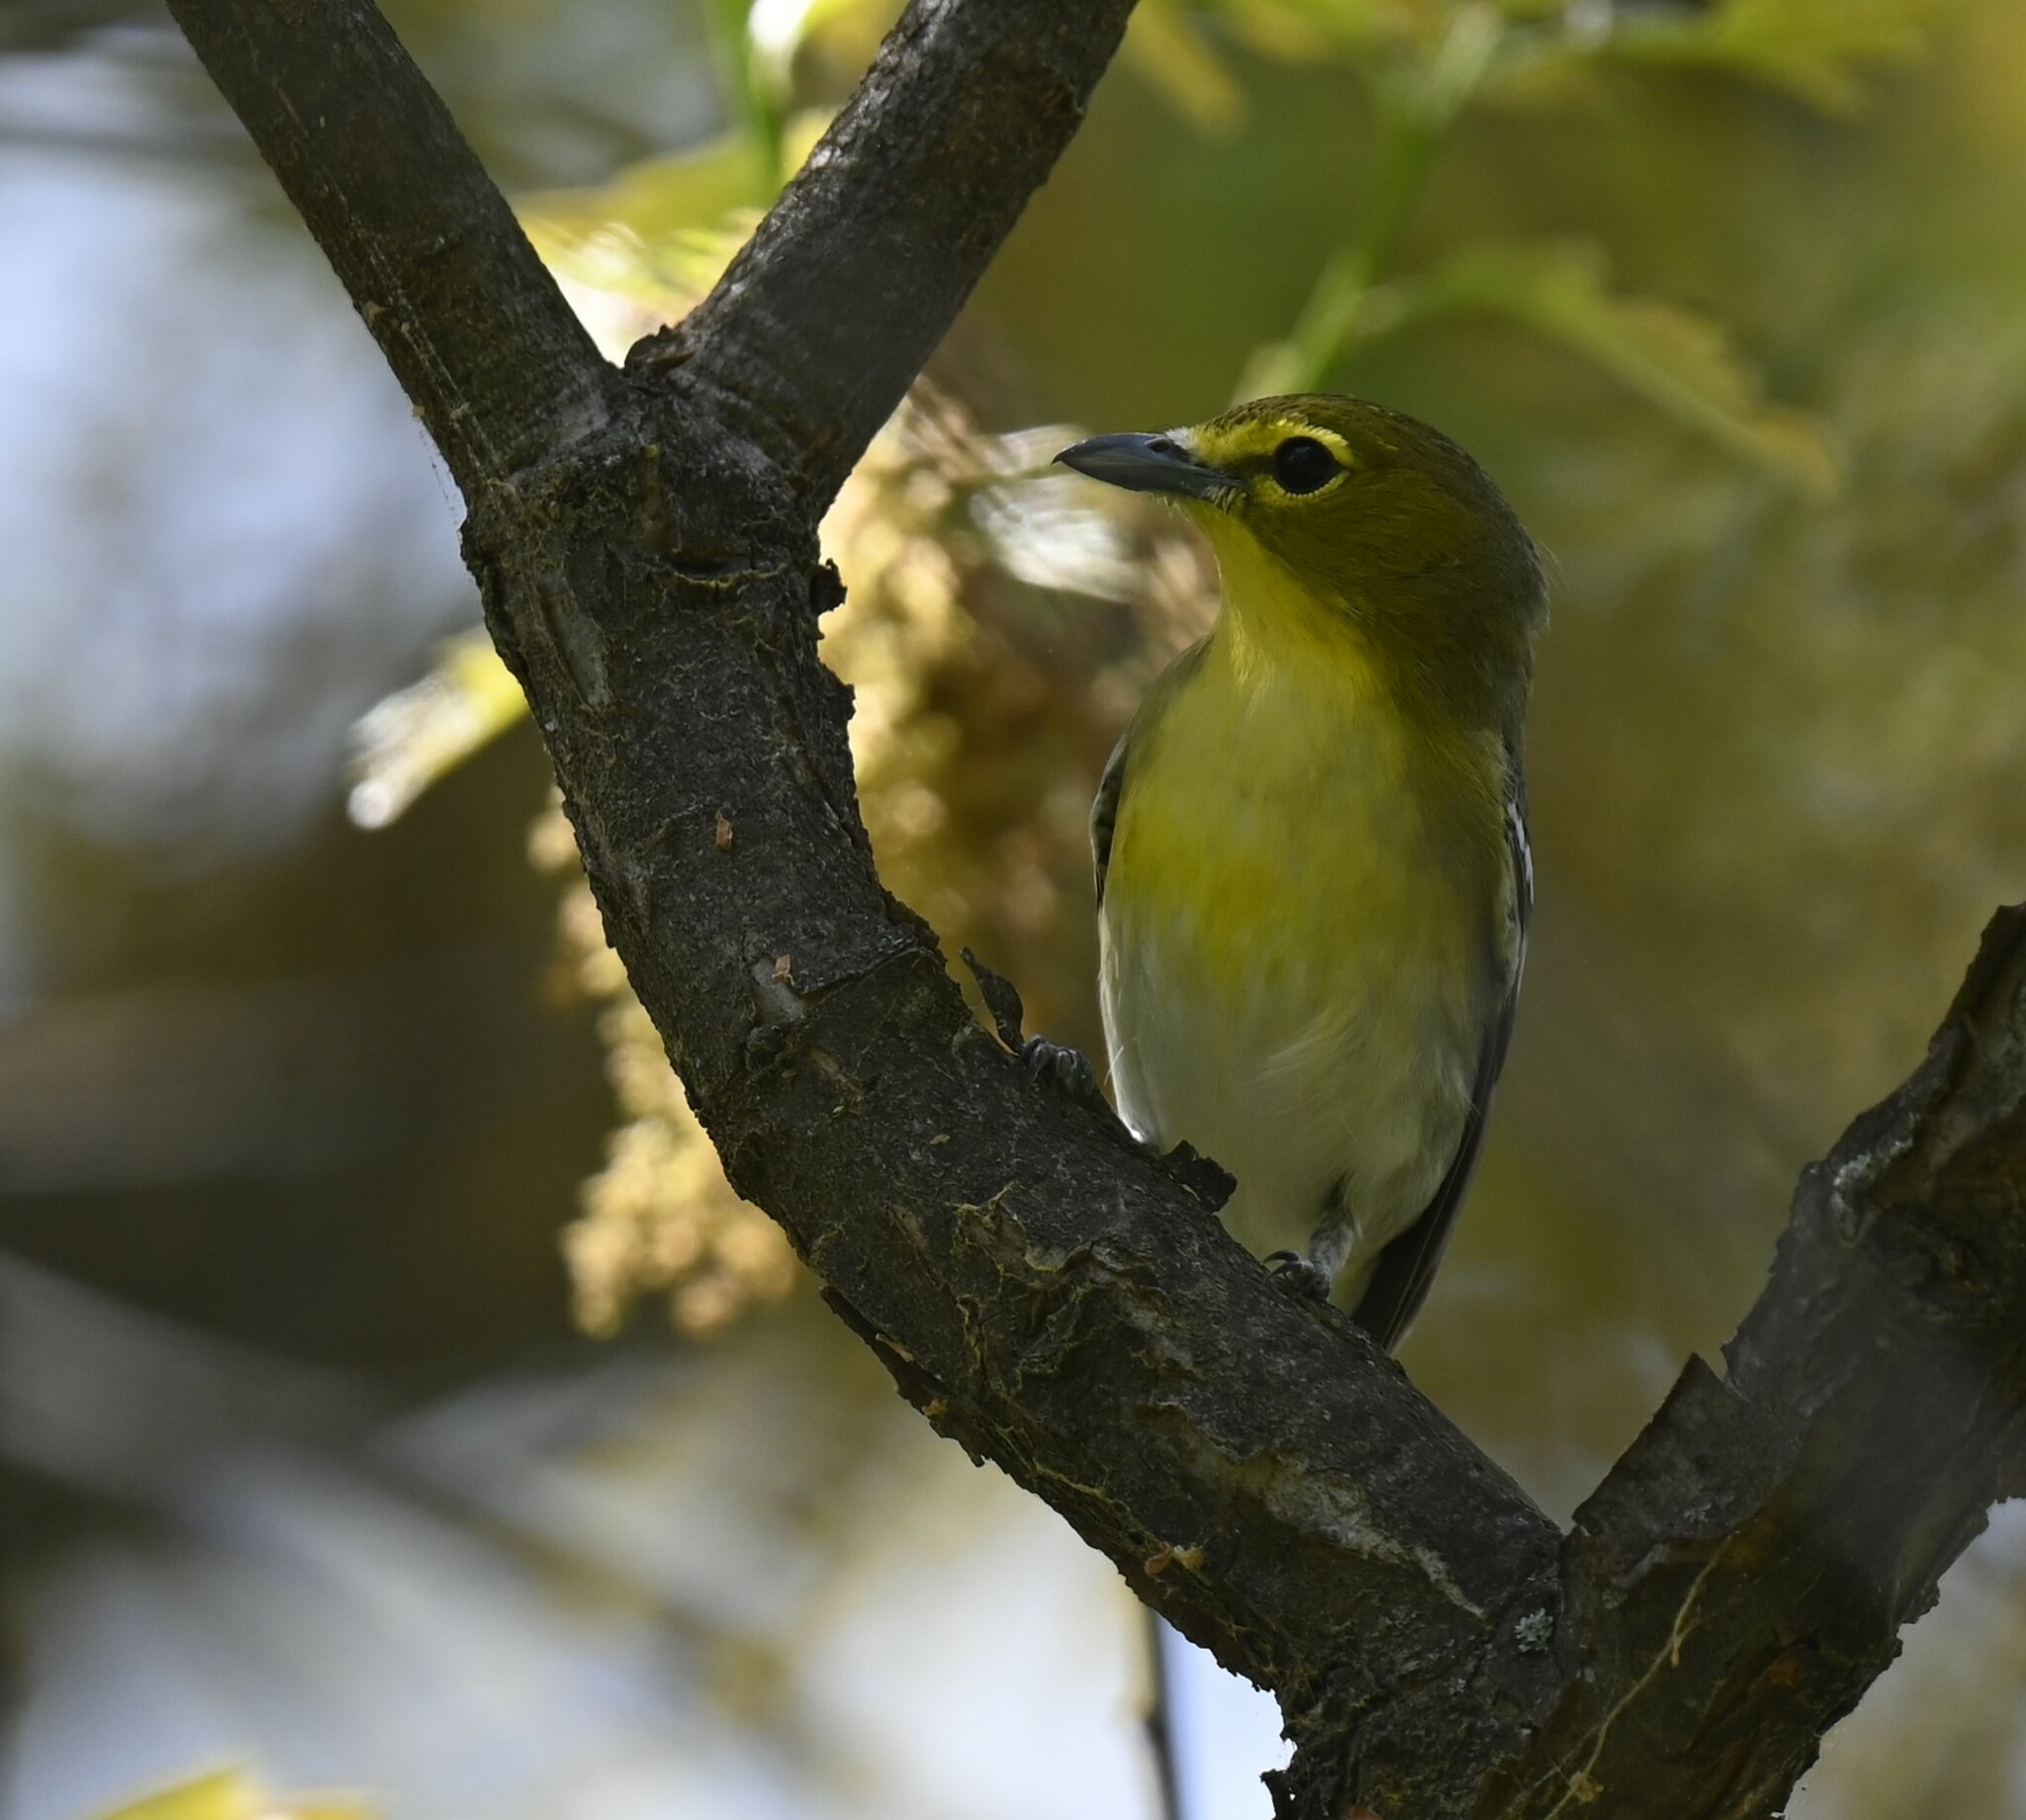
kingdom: Animalia
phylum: Chordata
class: Aves
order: Passeriformes
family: Vireonidae
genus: Vireo
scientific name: Vireo flavifrons
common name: Yellow-throated vireo
